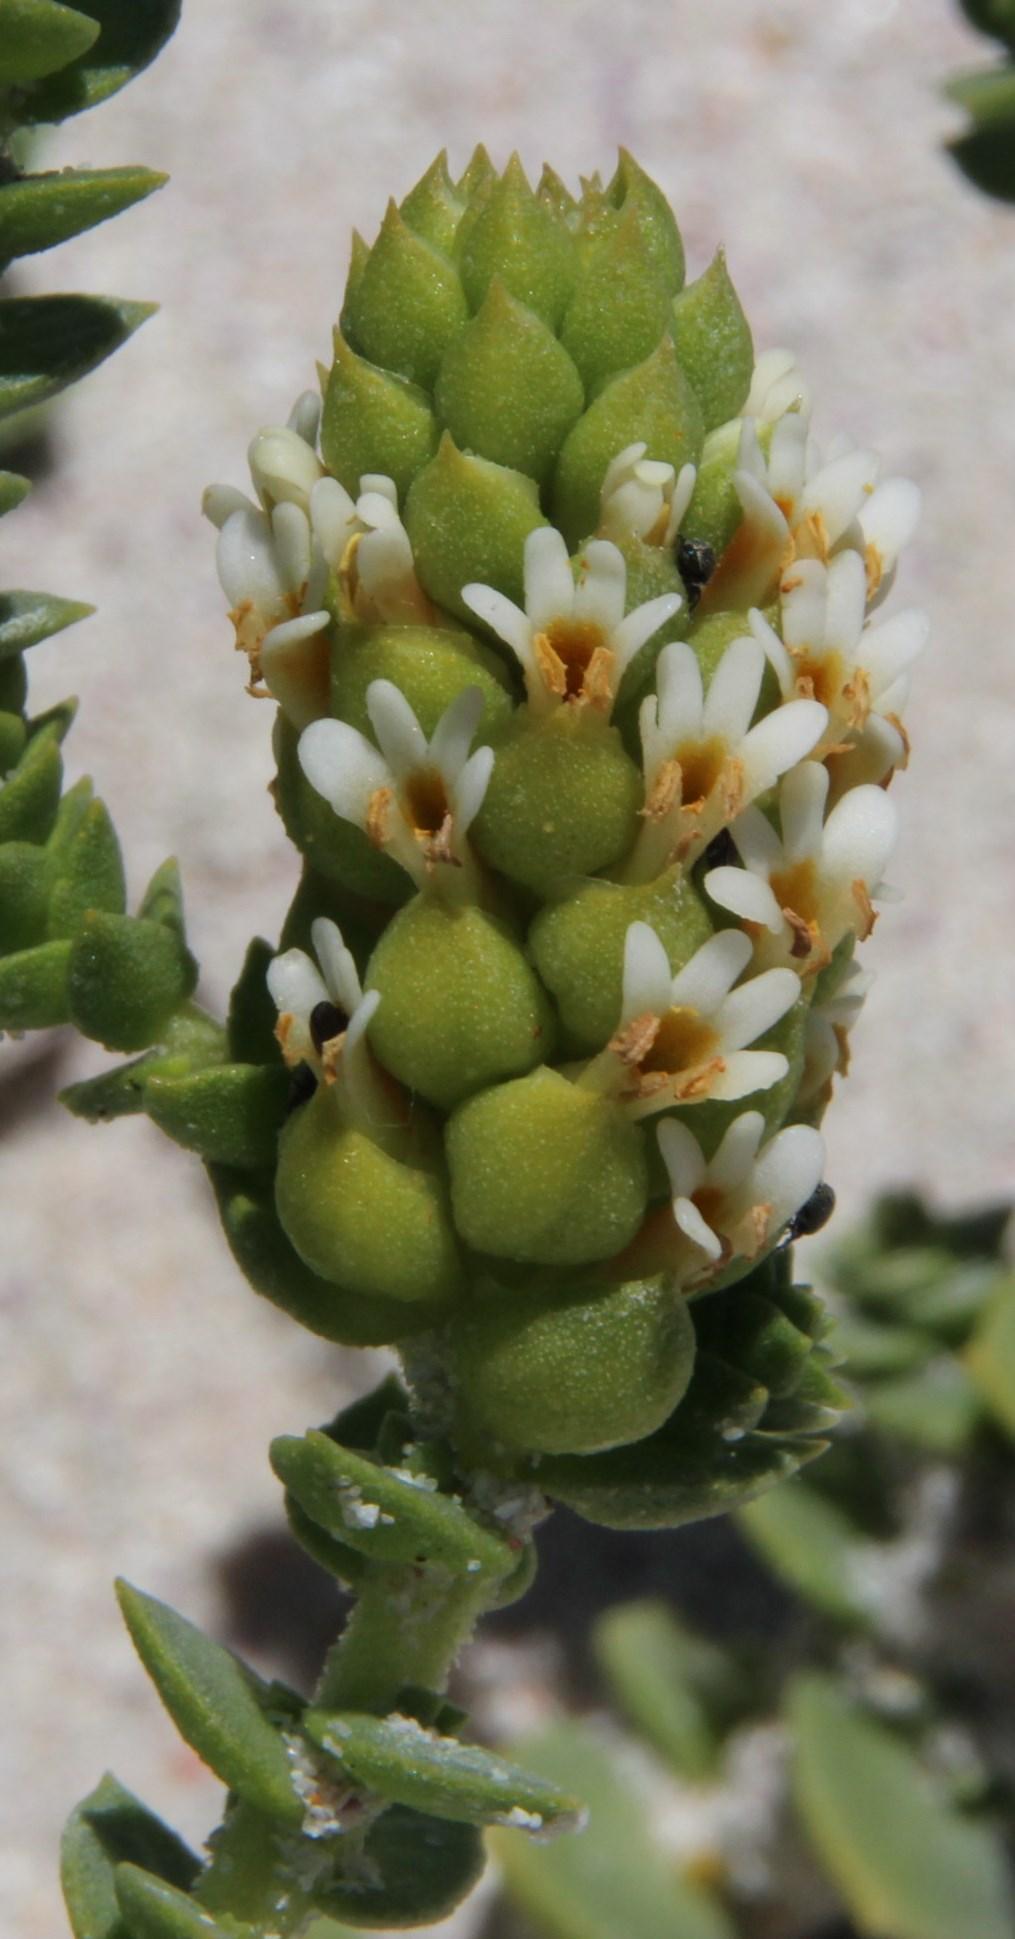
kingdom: Plantae
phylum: Tracheophyta
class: Magnoliopsida
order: Lamiales
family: Scrophulariaceae
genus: Hebenstretia
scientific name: Hebenstretia cordata
